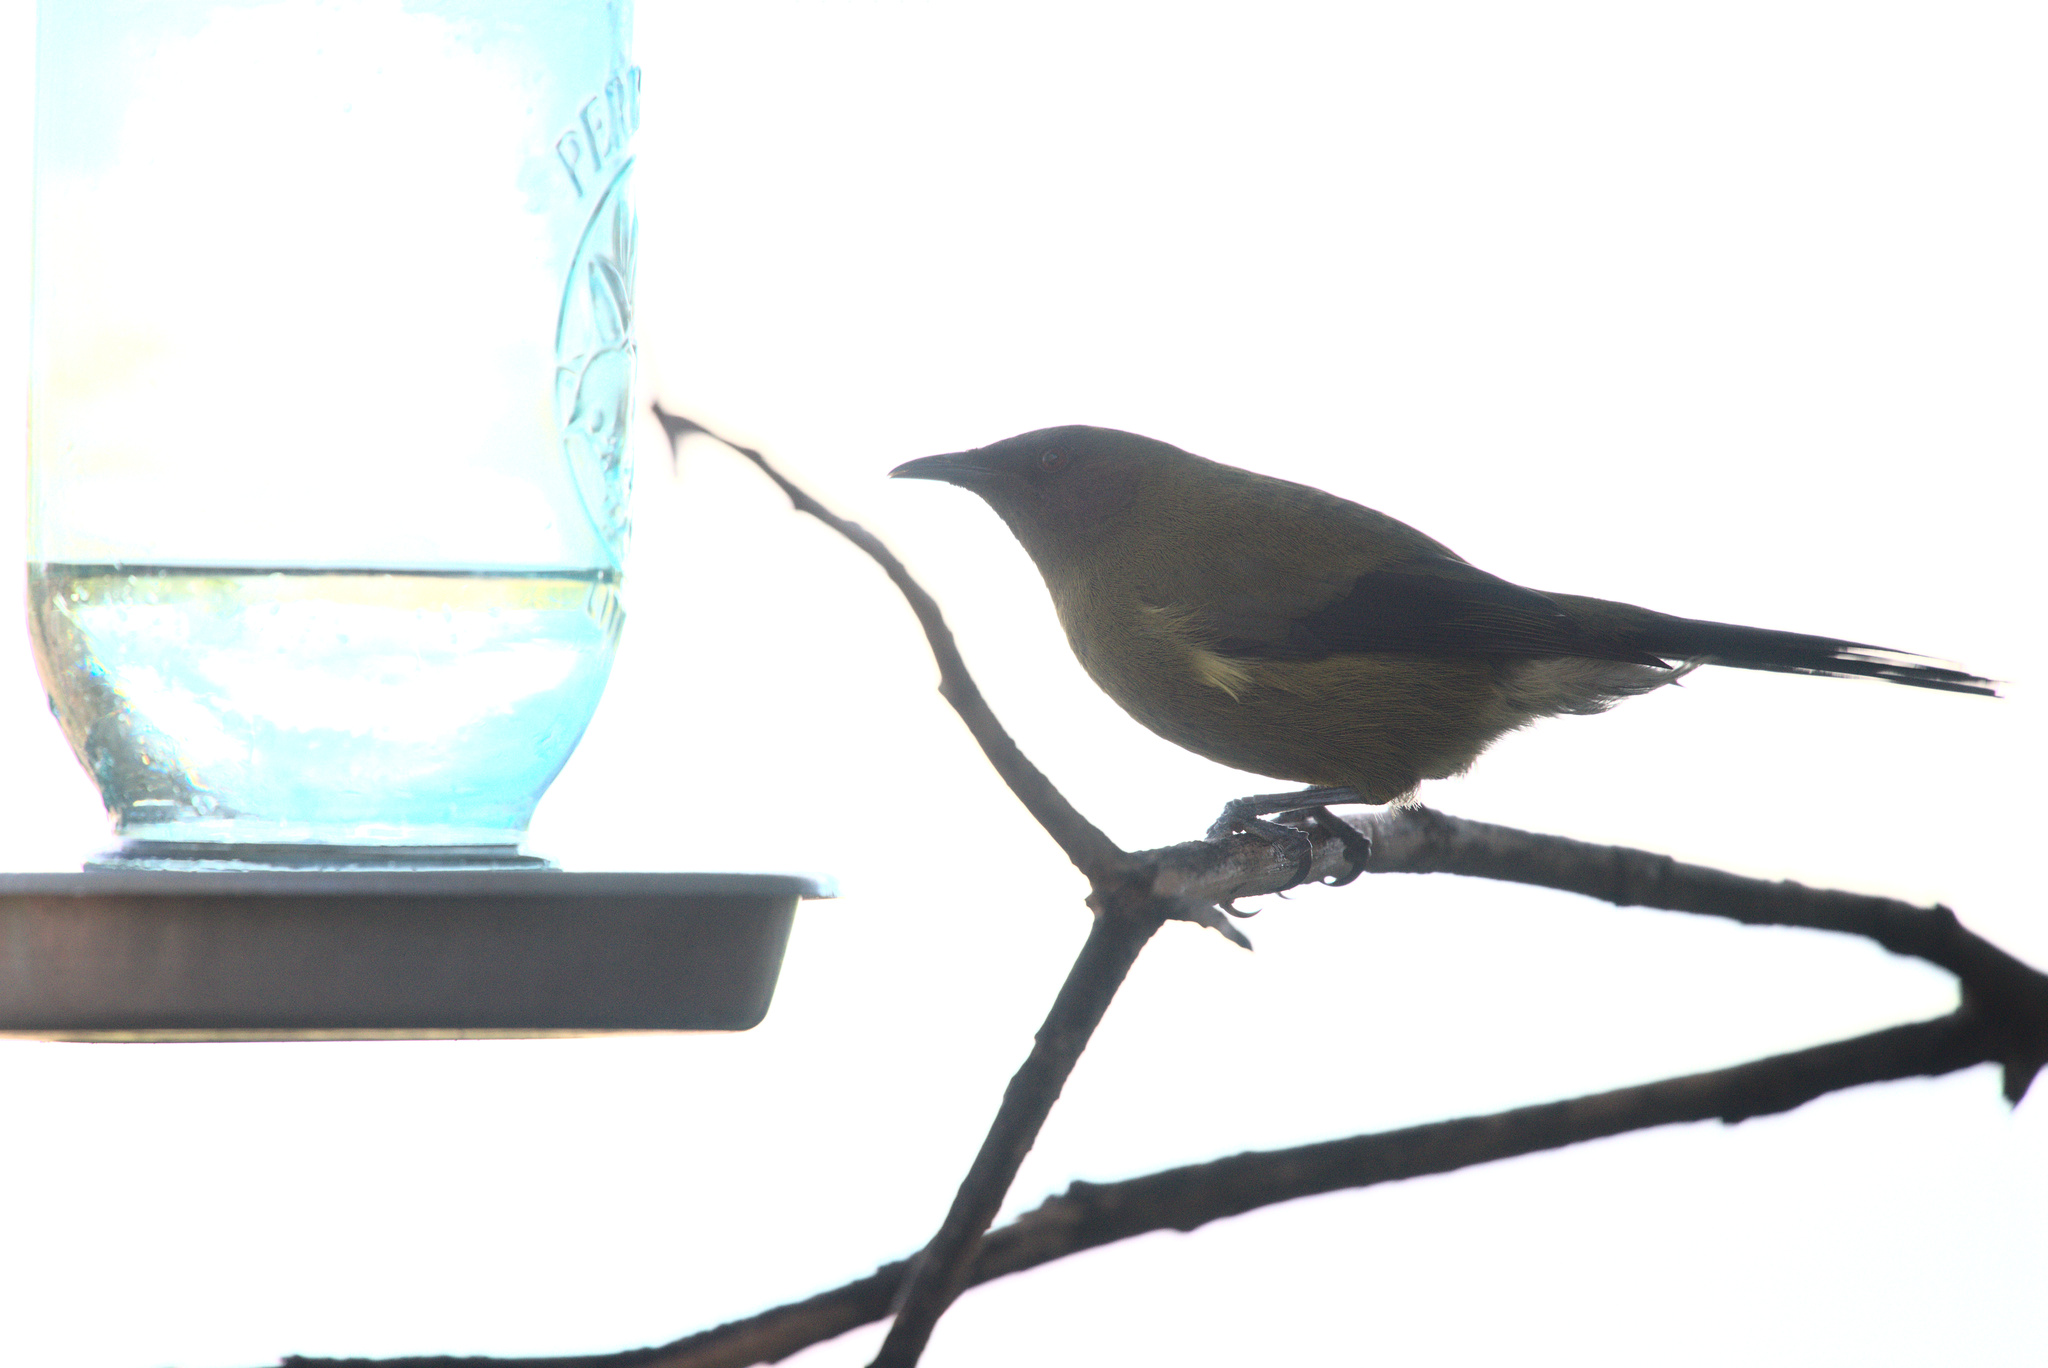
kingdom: Animalia
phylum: Chordata
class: Aves
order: Passeriformes
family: Meliphagidae
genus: Anthornis
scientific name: Anthornis melanura
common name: New zealand bellbird
